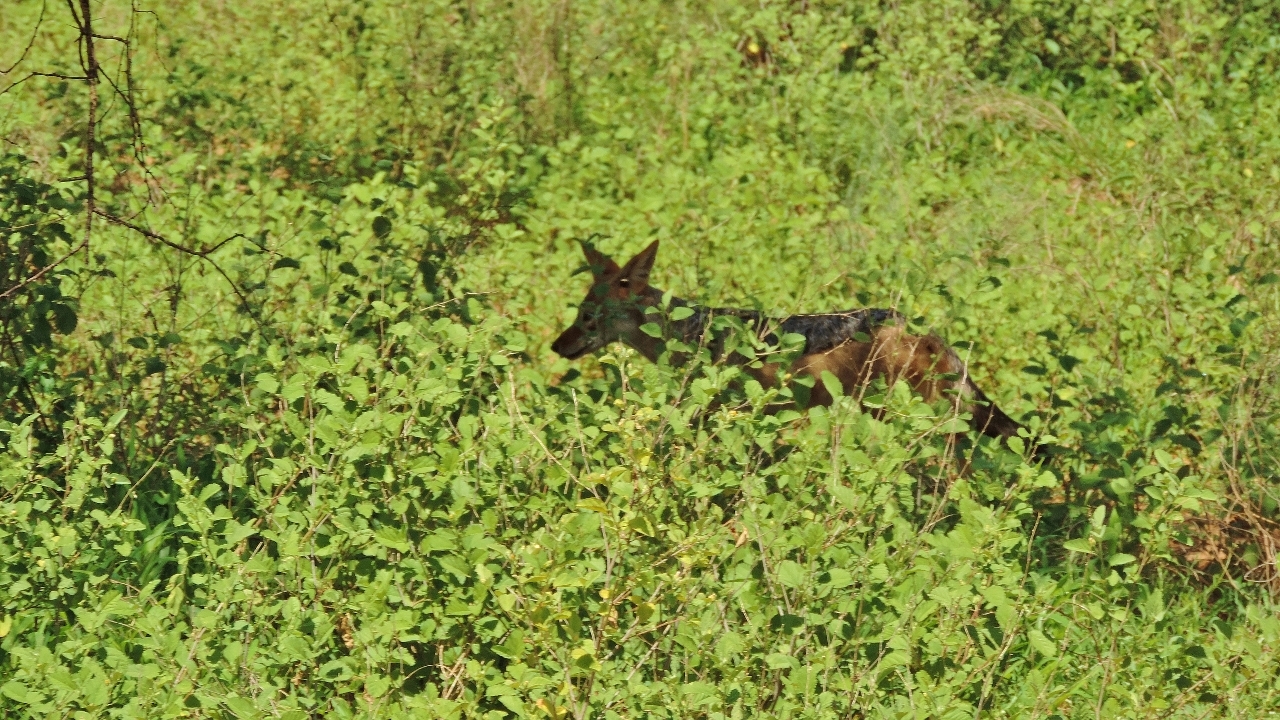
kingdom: Animalia
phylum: Chordata
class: Mammalia
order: Carnivora
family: Canidae
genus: Lupulella
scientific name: Lupulella
